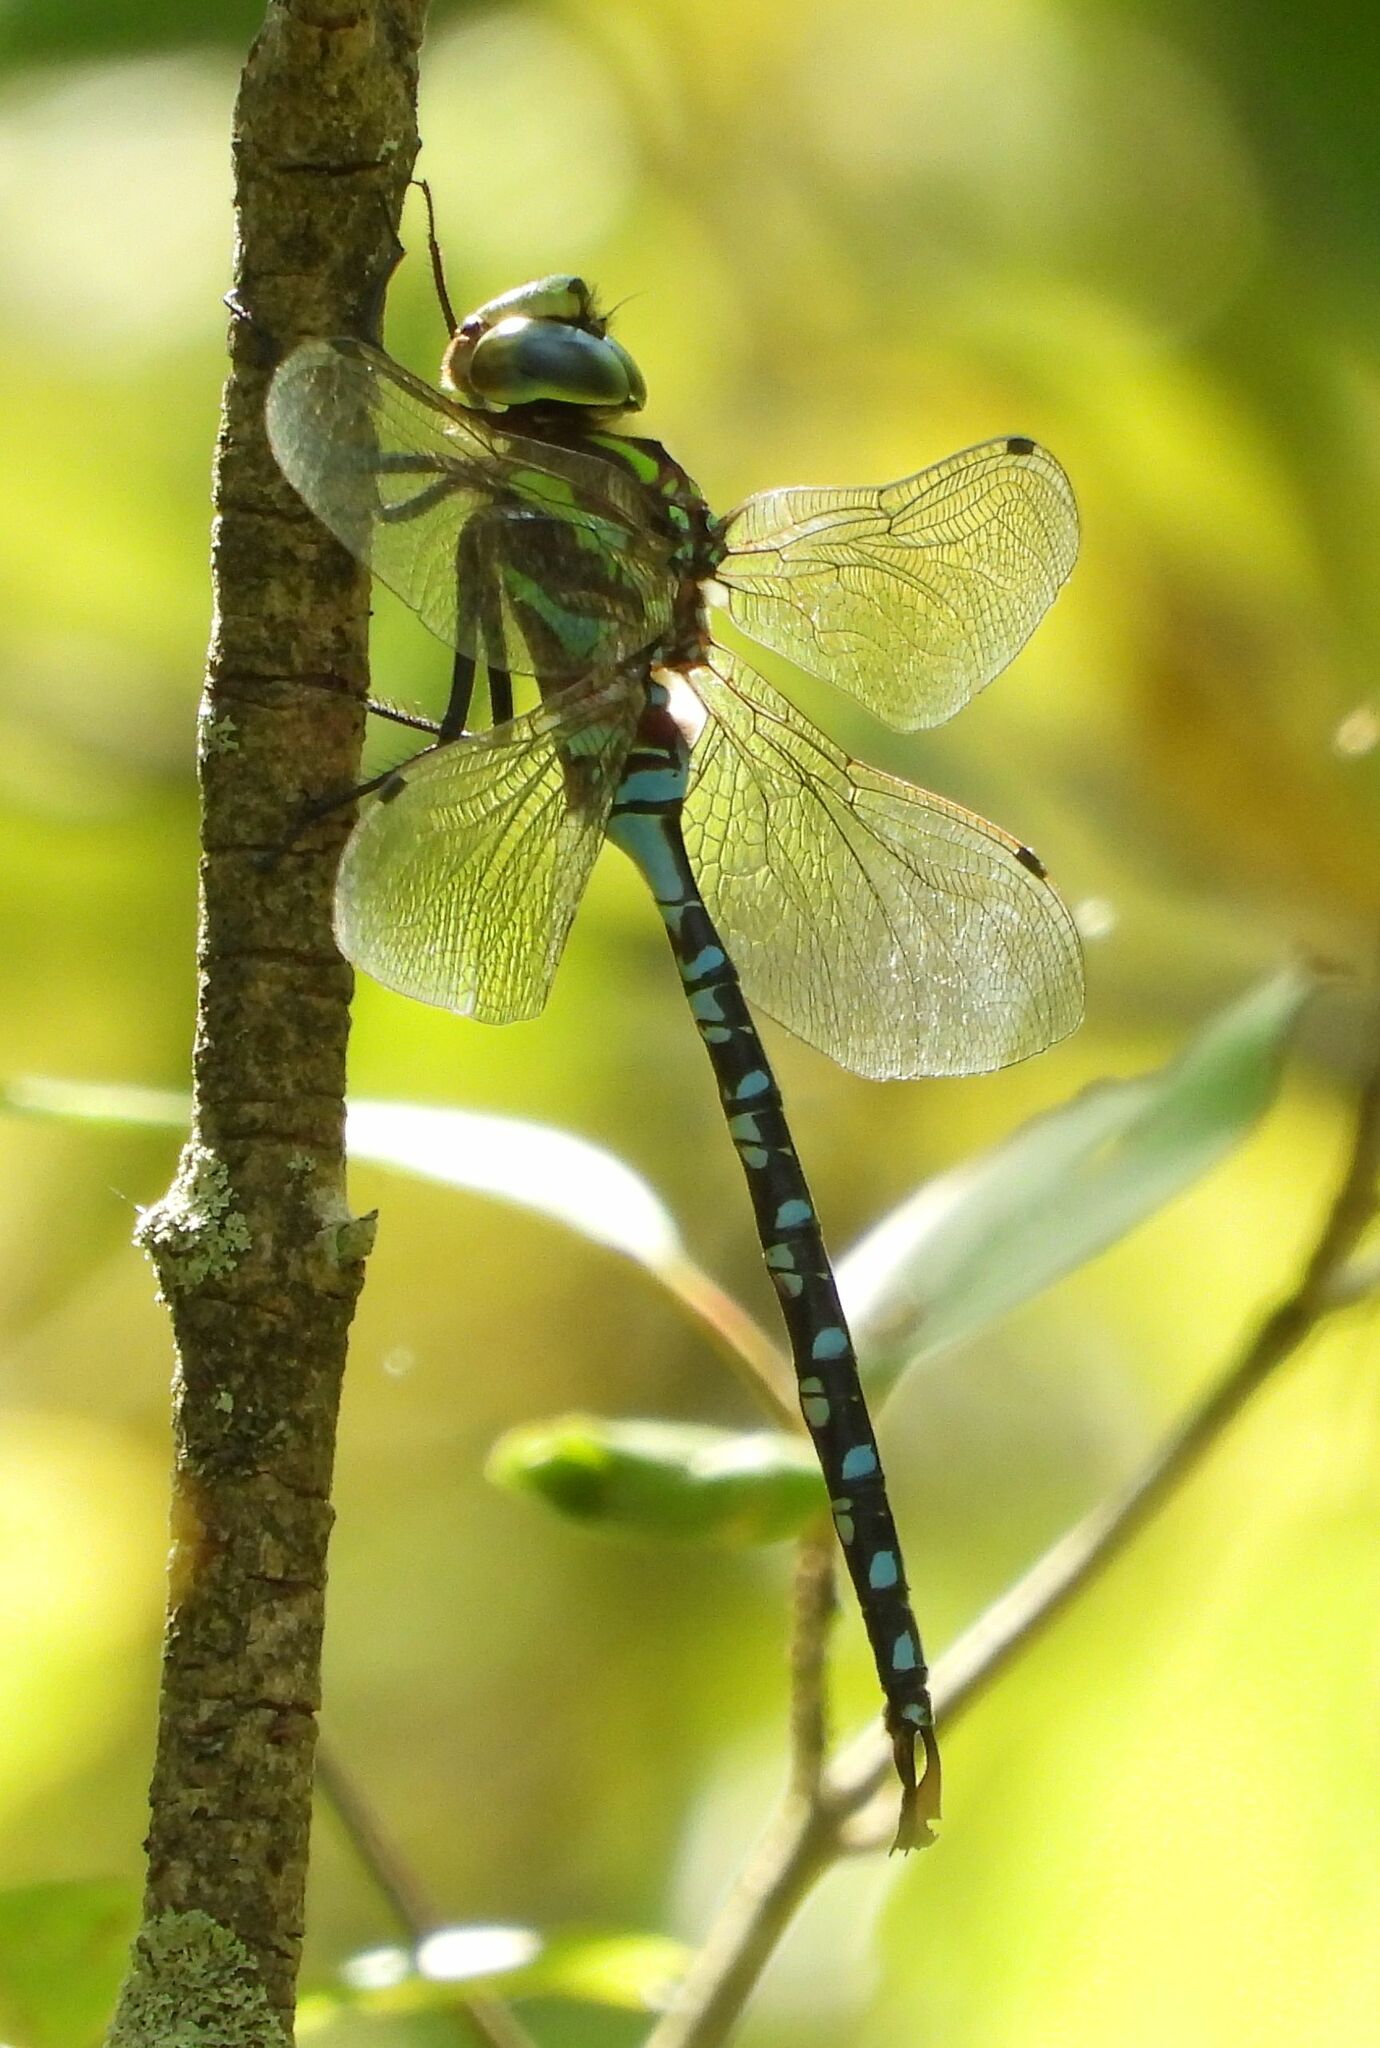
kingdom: Animalia
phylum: Arthropoda
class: Insecta
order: Odonata
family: Aeshnidae
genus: Aeshna
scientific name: Aeshna constricta
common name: Lance-tipped darner
